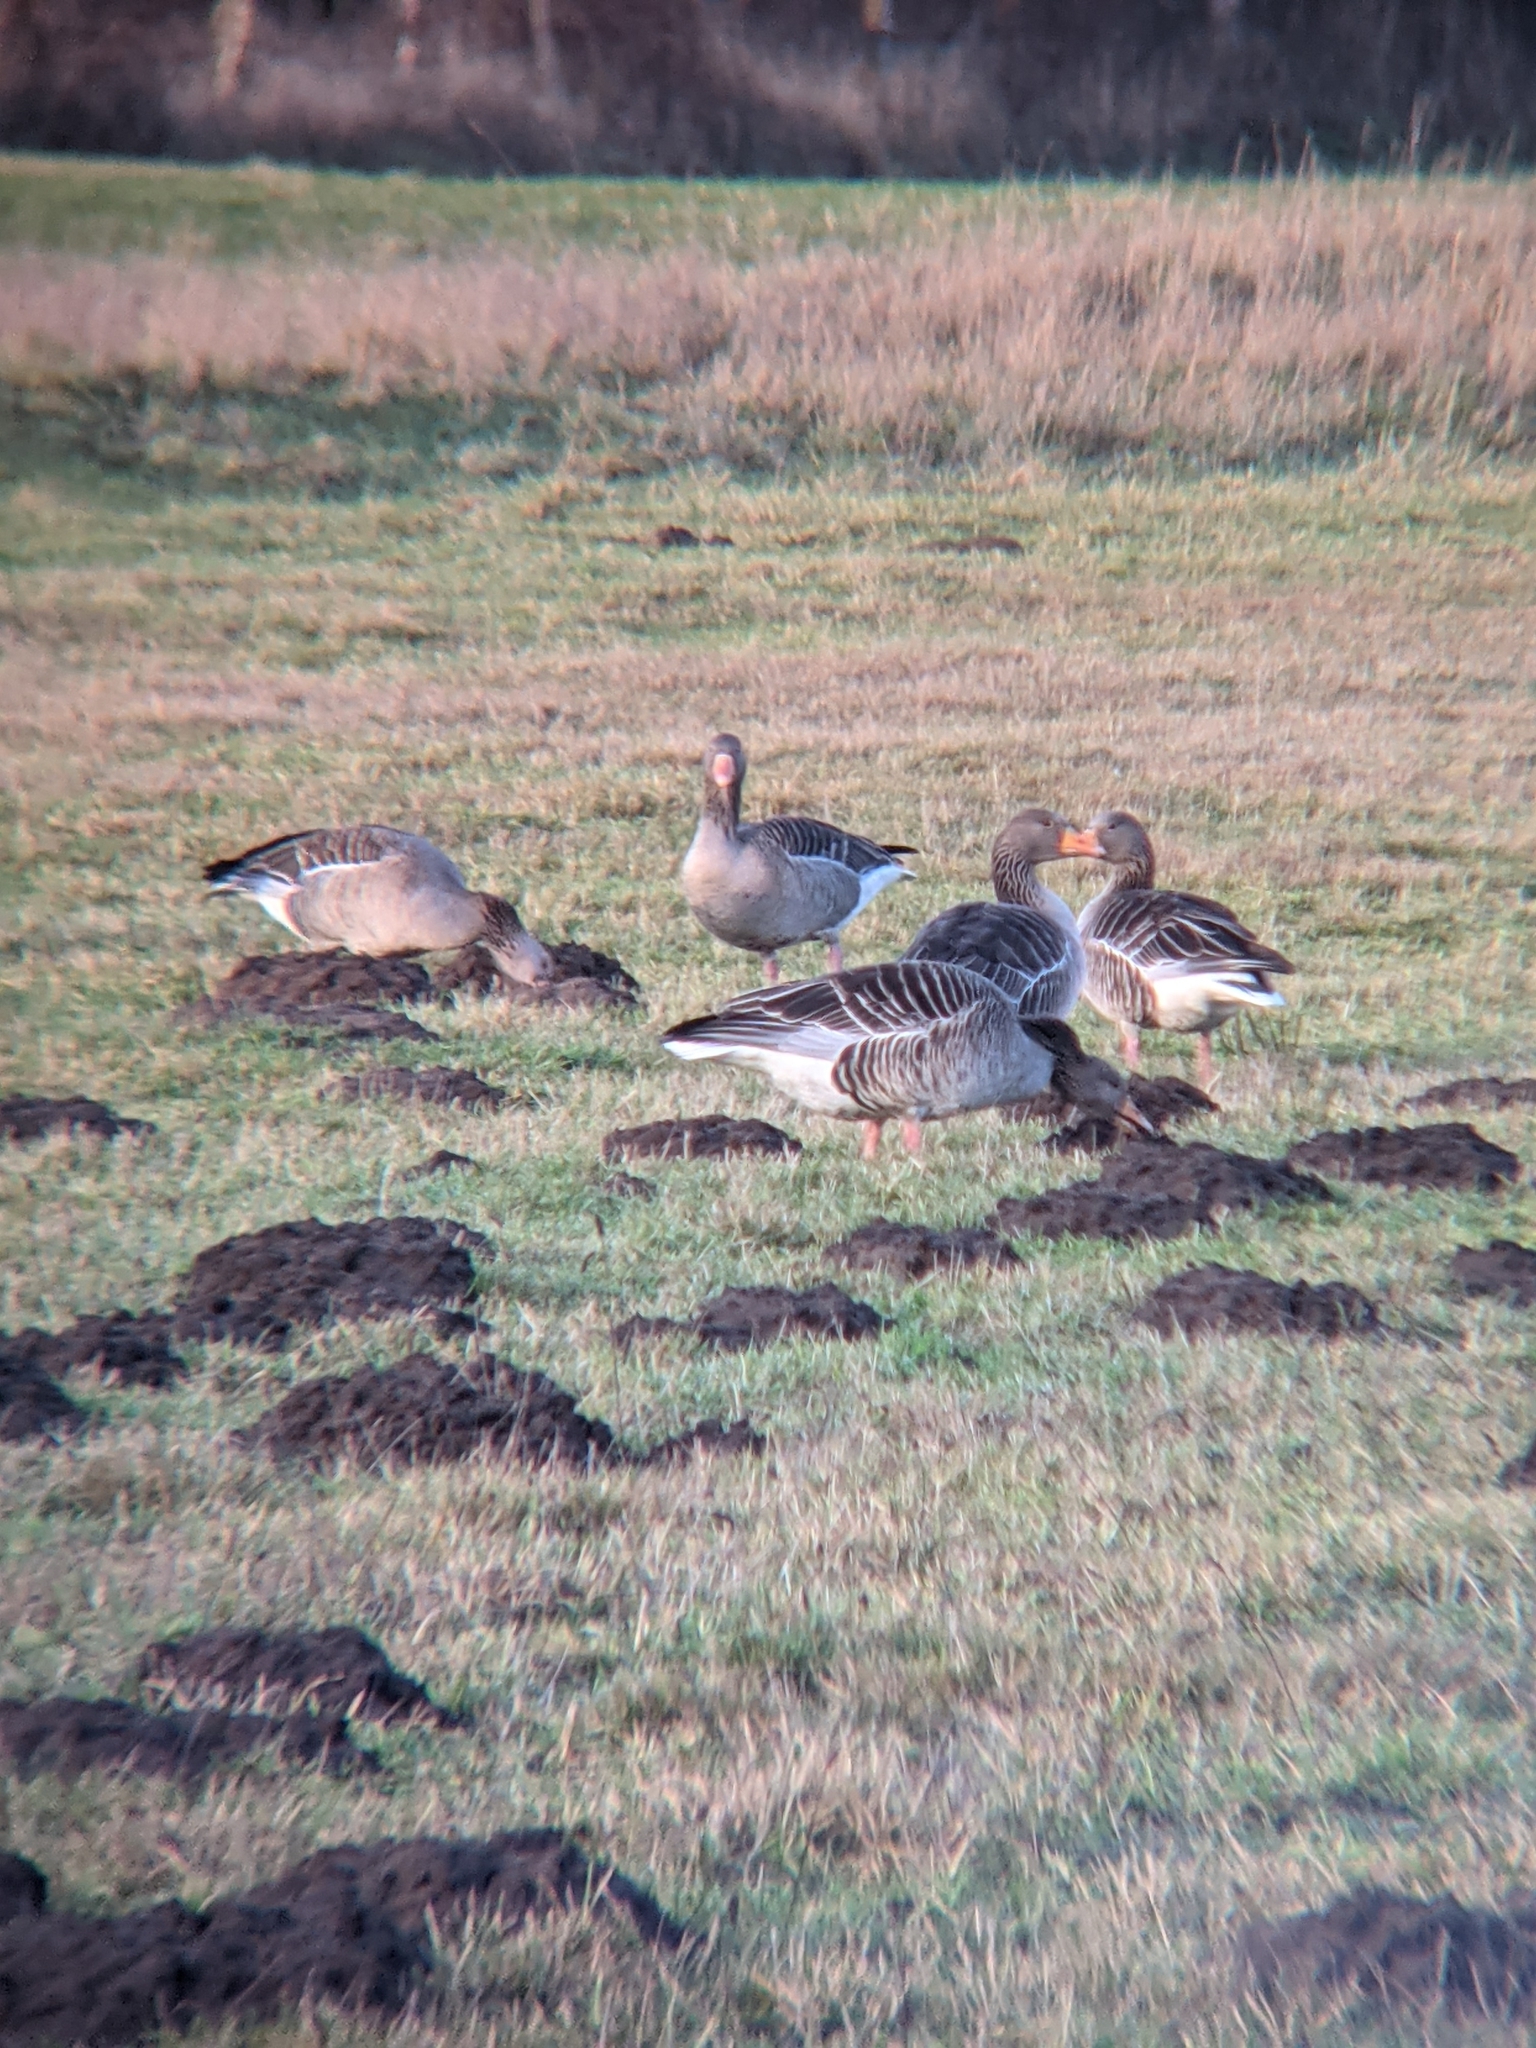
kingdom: Animalia
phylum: Chordata
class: Aves
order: Anseriformes
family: Anatidae
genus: Anser
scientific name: Anser anser
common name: Greylag goose
